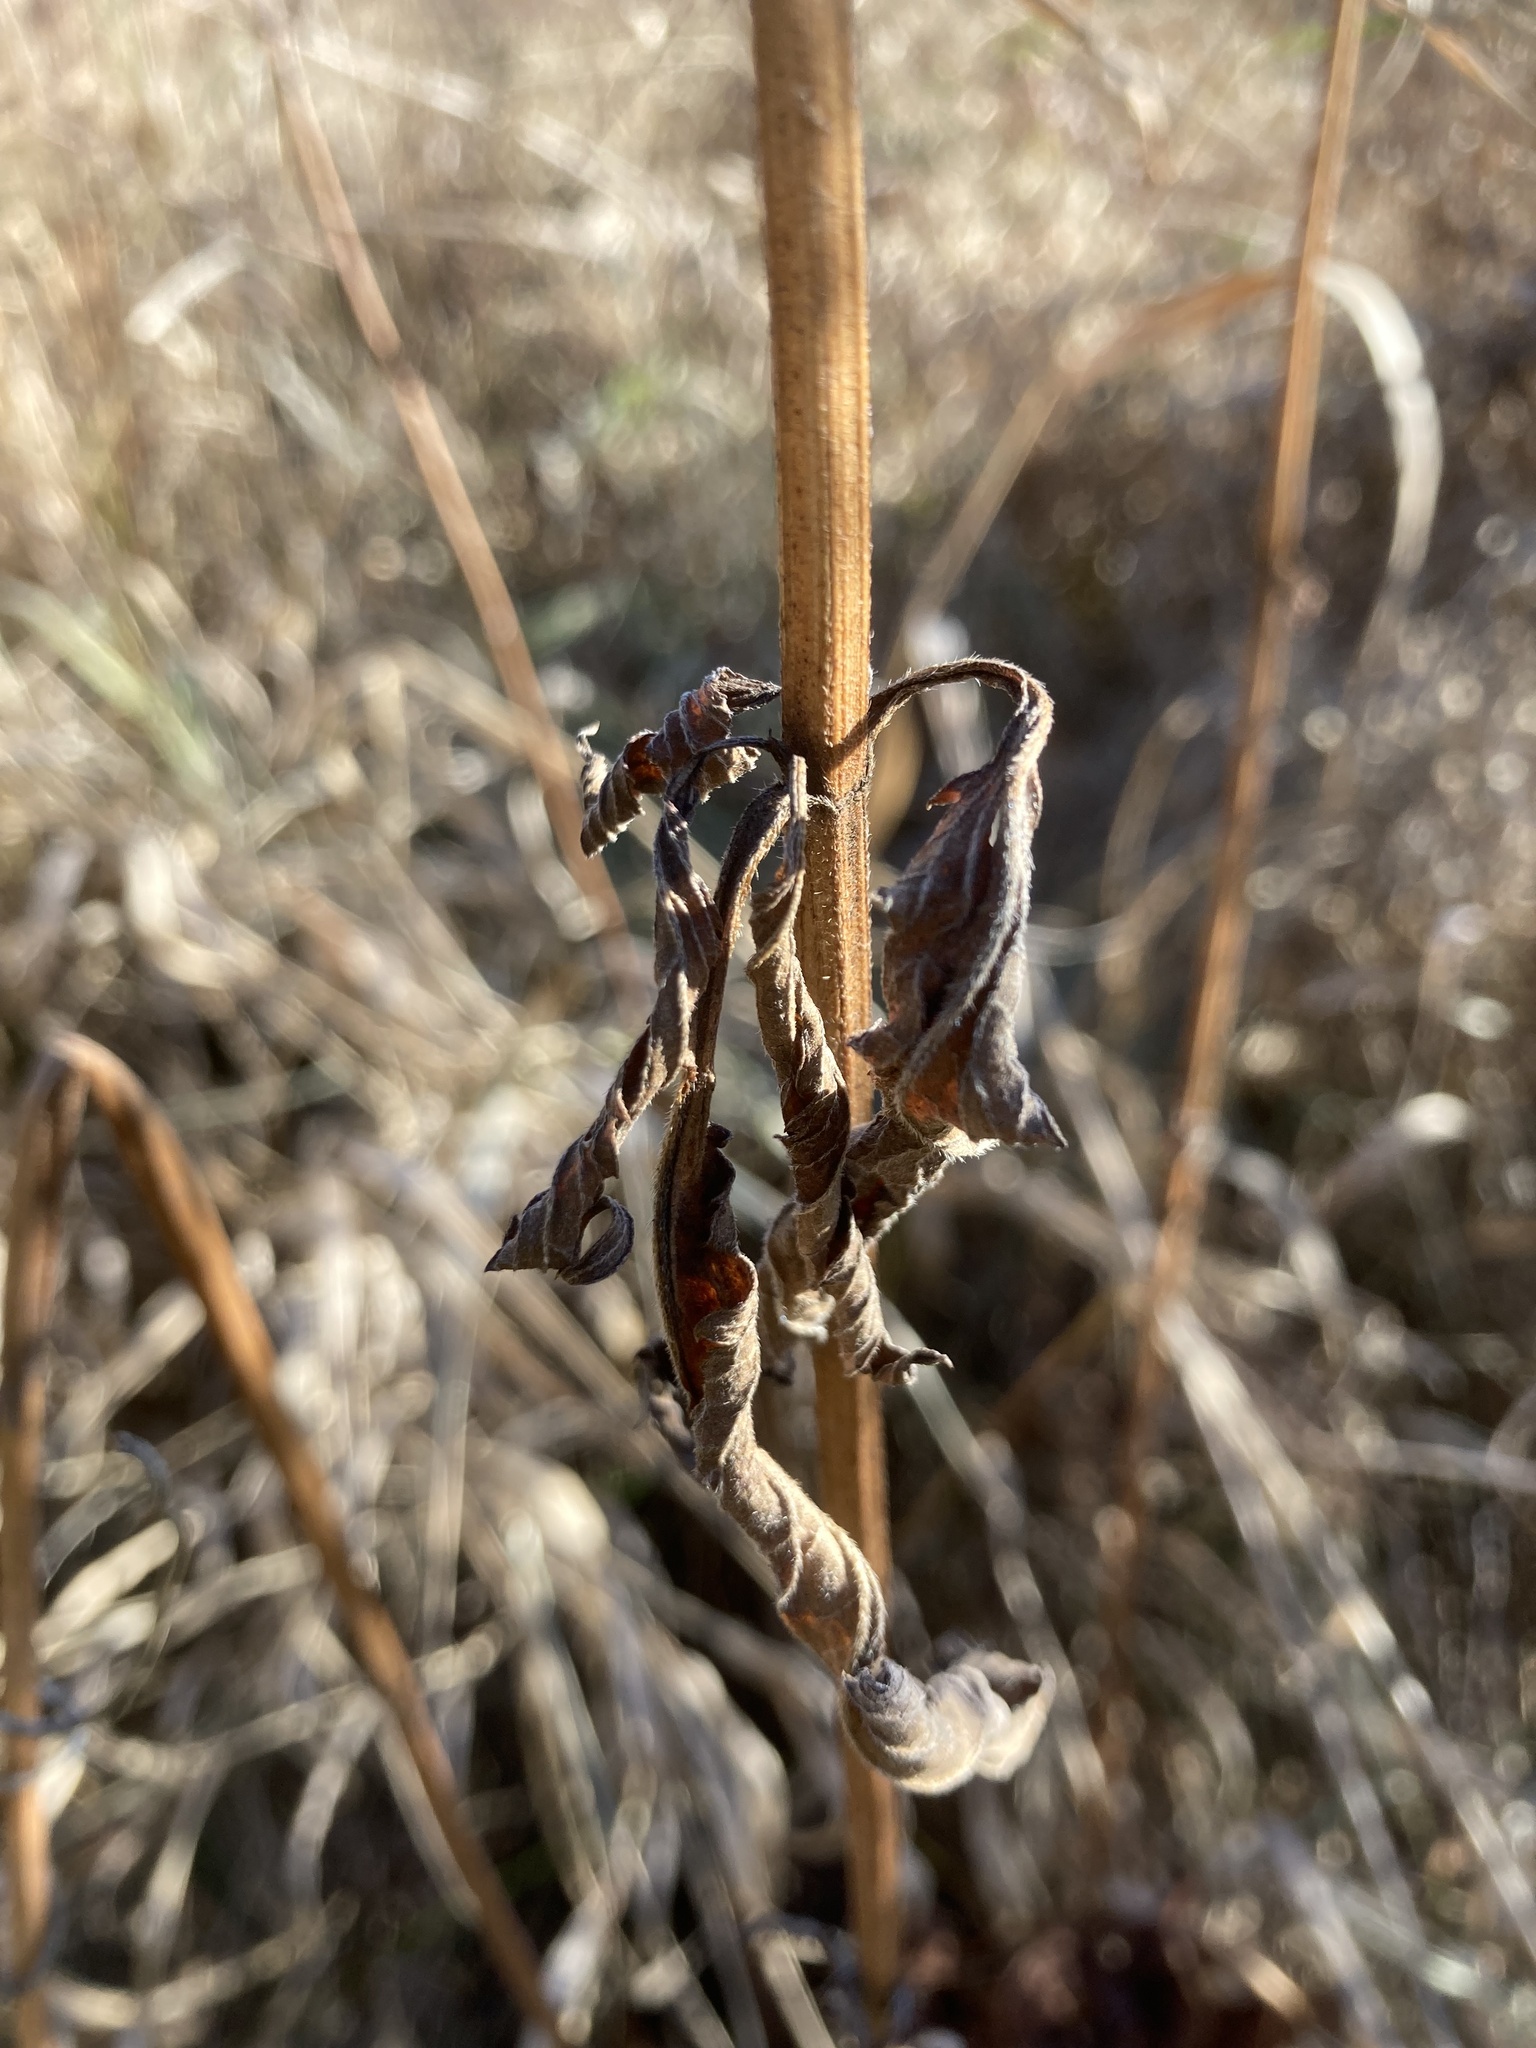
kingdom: Plantae
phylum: Tracheophyta
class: Magnoliopsida
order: Lamiales
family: Verbenaceae
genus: Verbena
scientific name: Verbena hastata
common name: American blue vervain
